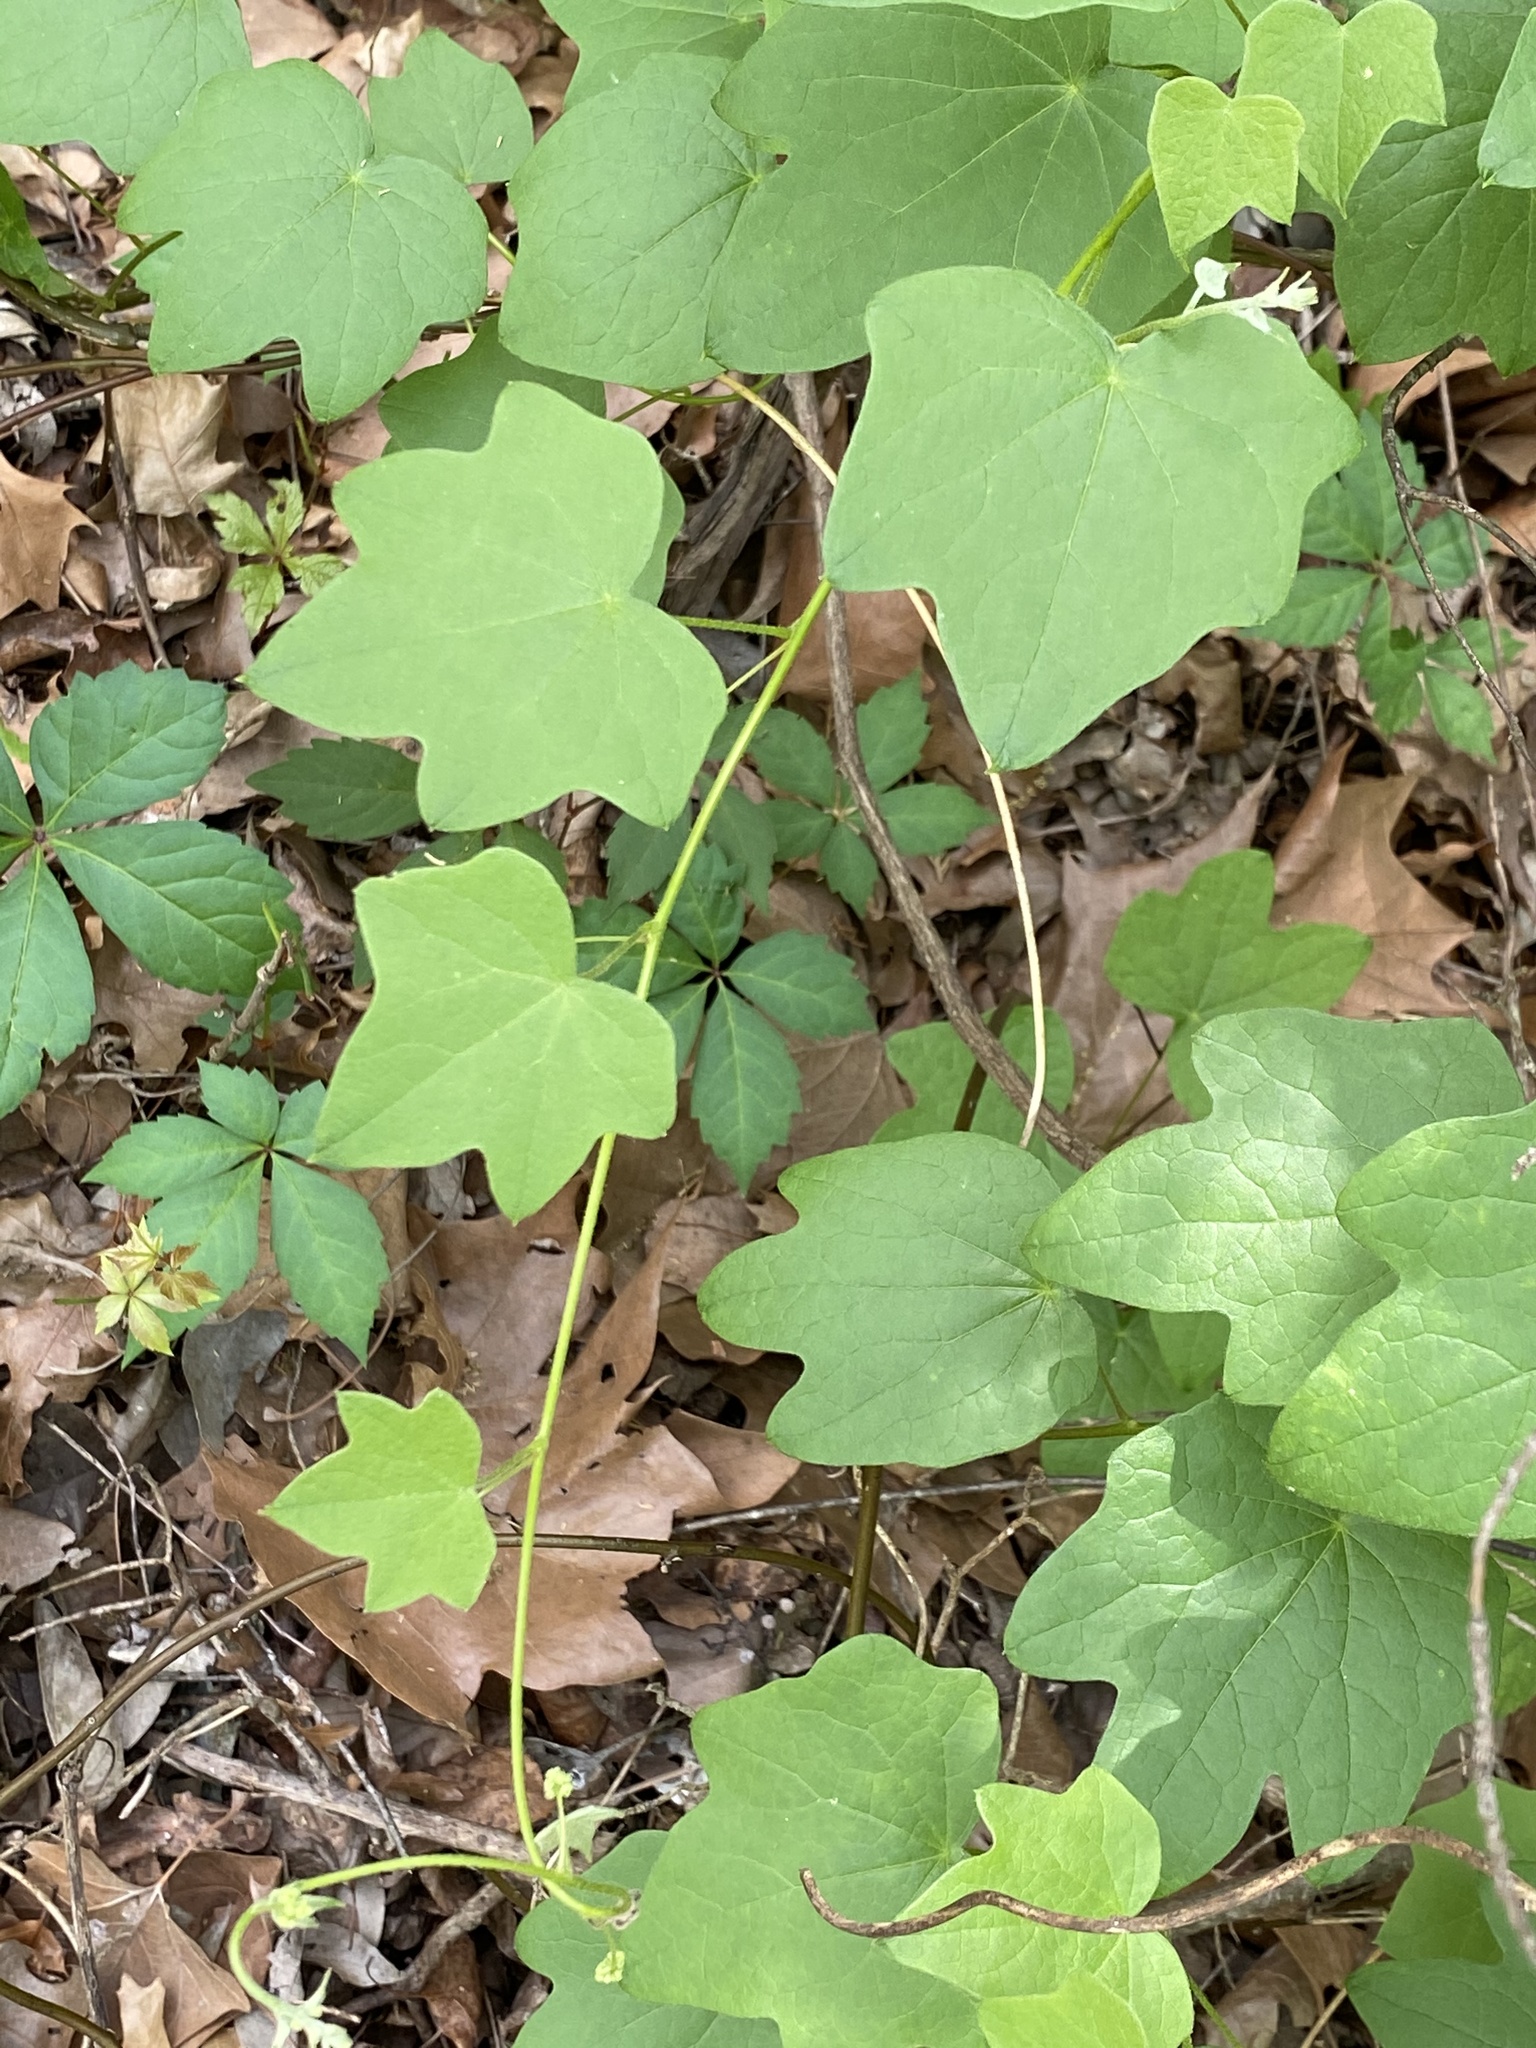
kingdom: Plantae
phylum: Tracheophyta
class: Magnoliopsida
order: Ranunculales
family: Menispermaceae
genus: Menispermum
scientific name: Menispermum canadense
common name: Moonseed
